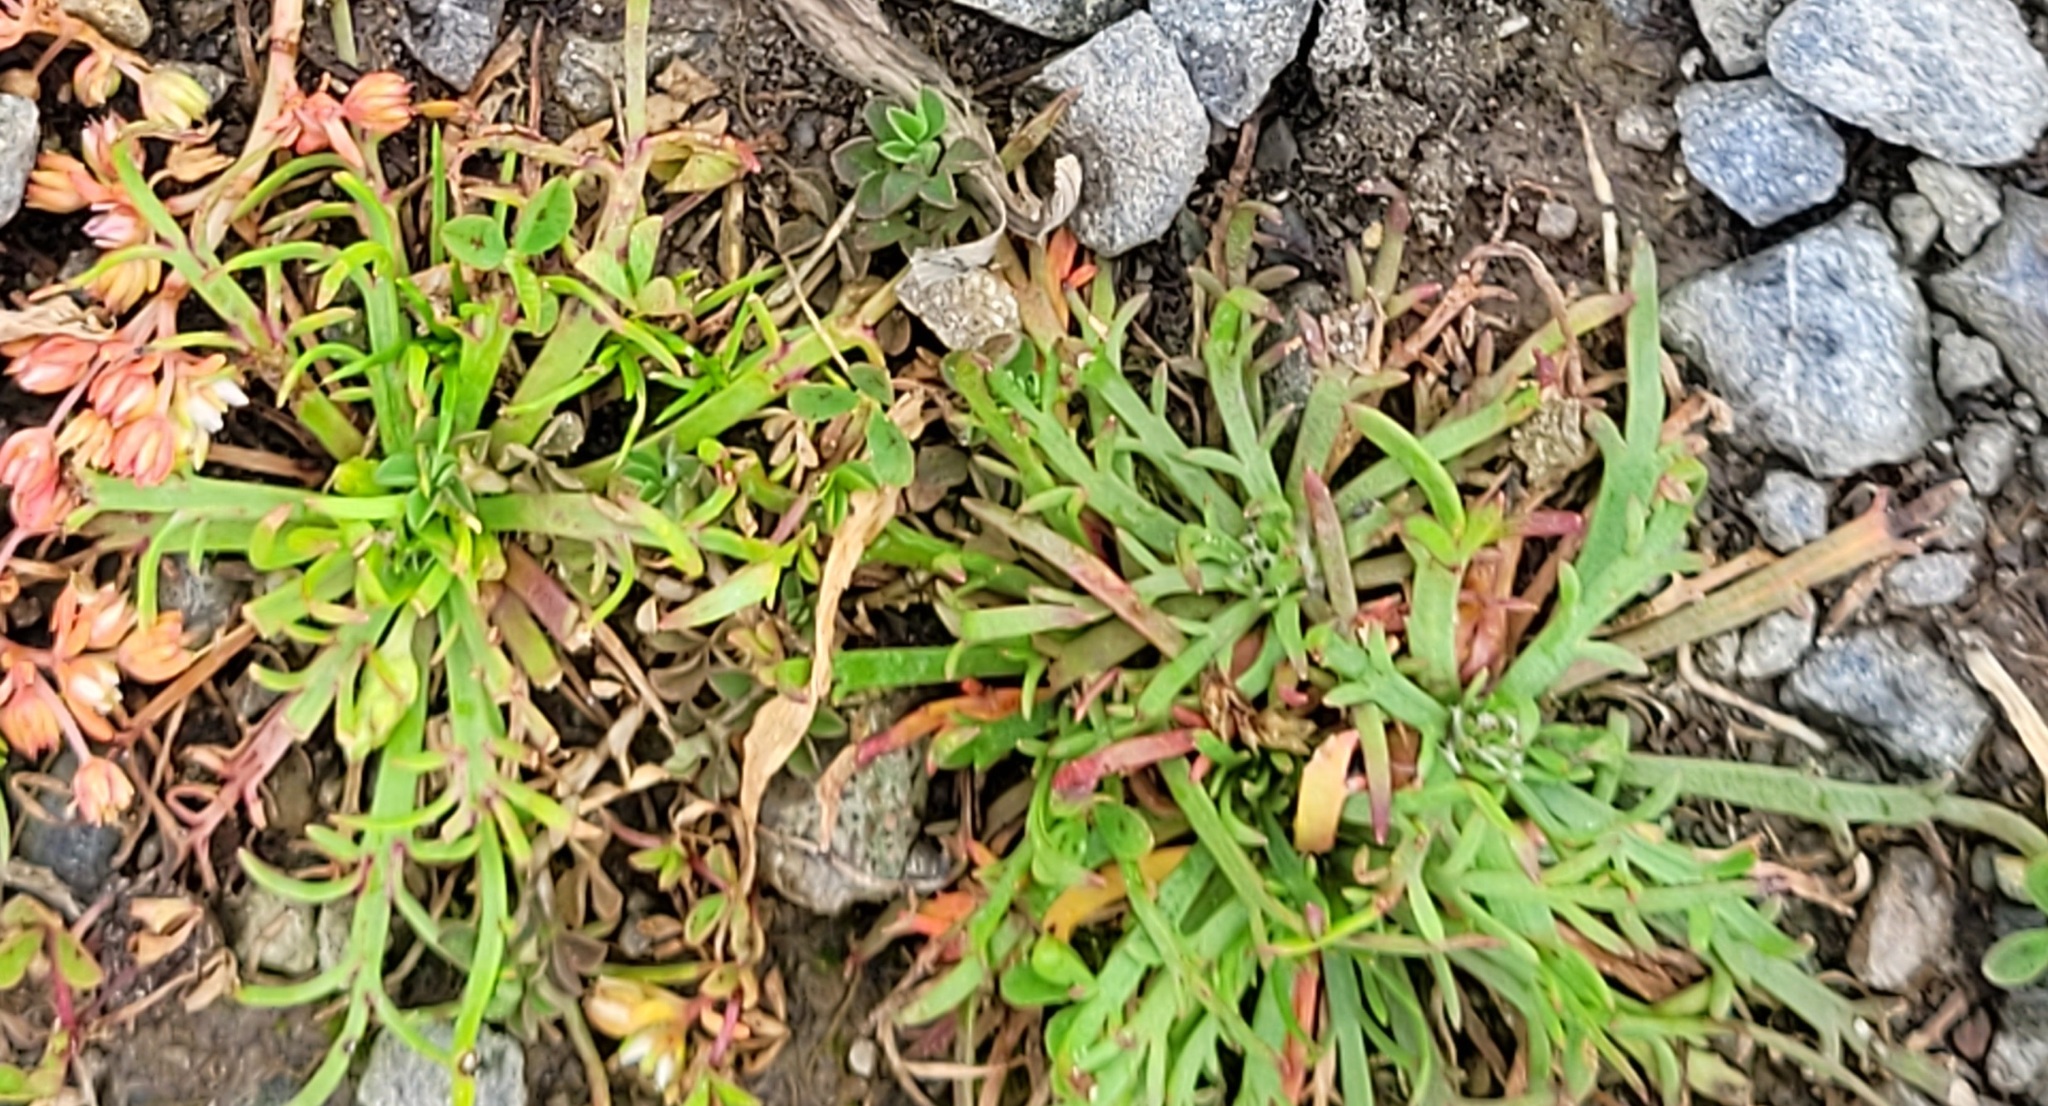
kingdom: Plantae
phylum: Tracheophyta
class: Magnoliopsida
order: Lamiales
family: Plantaginaceae
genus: Plantago
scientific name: Plantago coronopus
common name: Buck's-horn plantain
